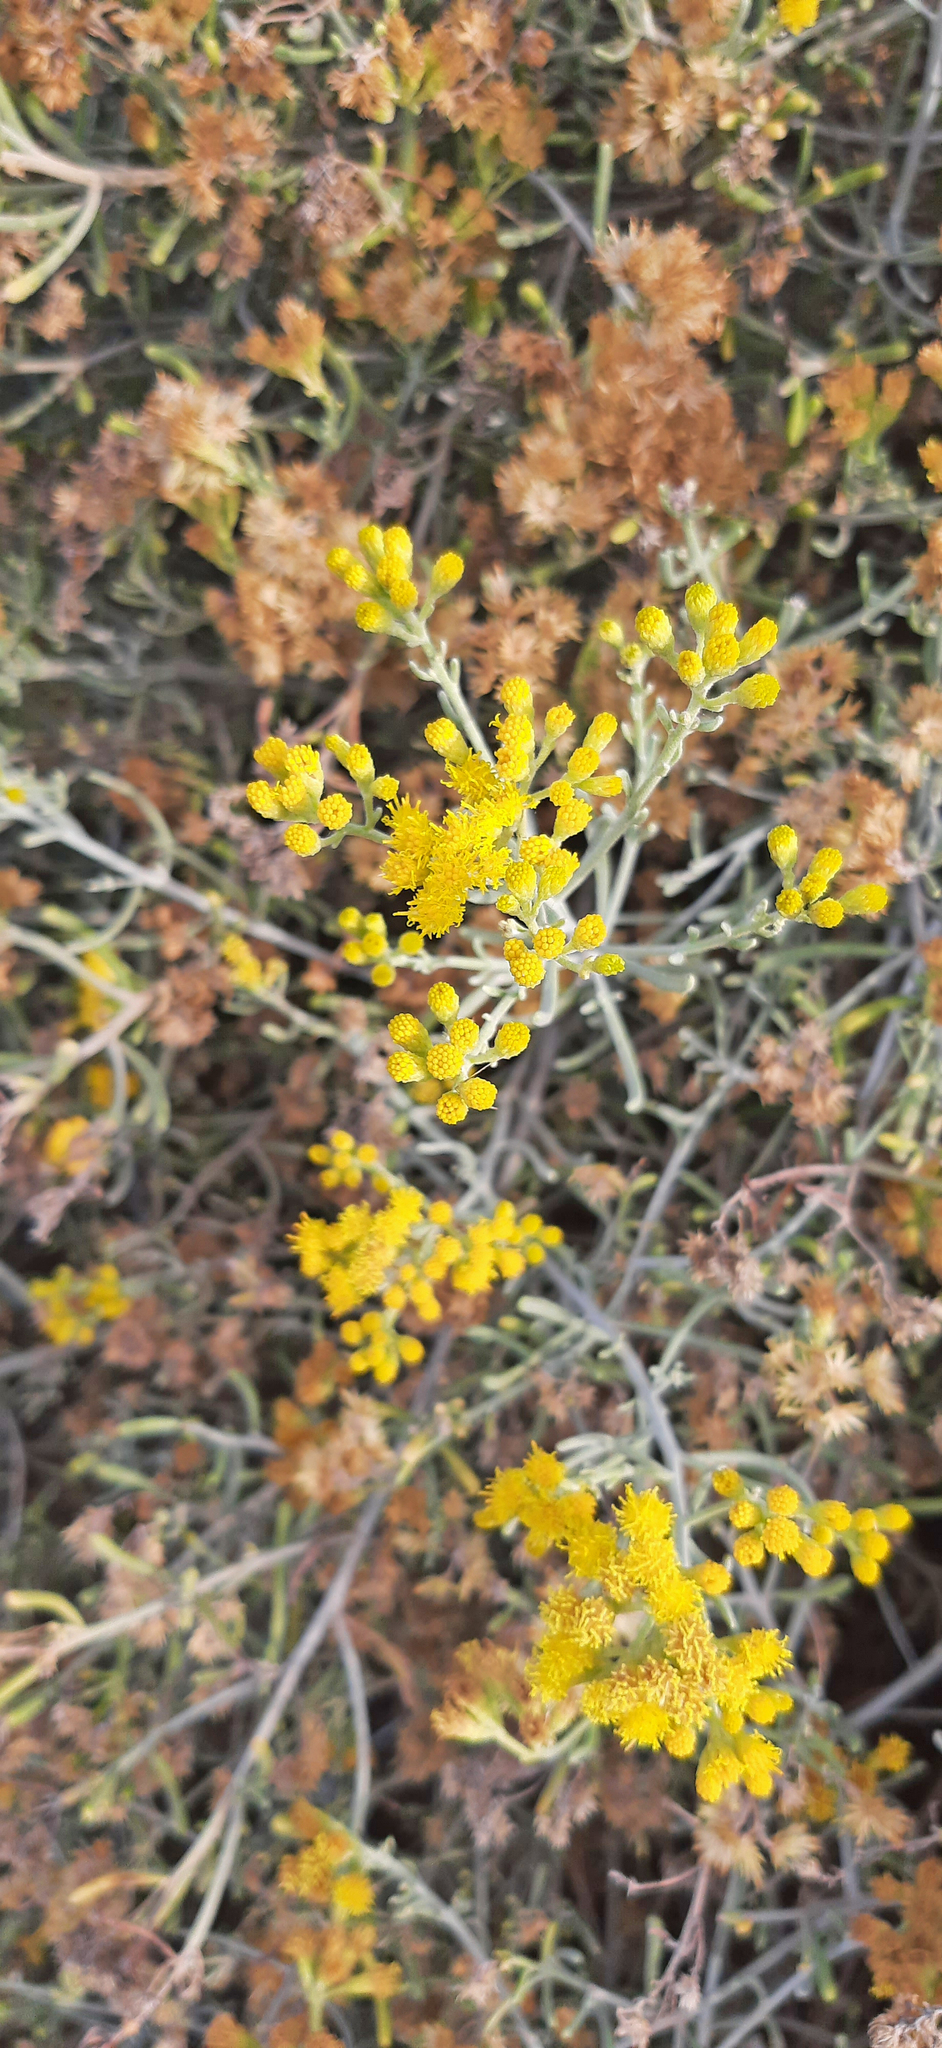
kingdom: Plantae
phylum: Tracheophyta
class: Magnoliopsida
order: Asterales
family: Asteraceae
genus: Schizogyne
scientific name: Schizogyne sericea
